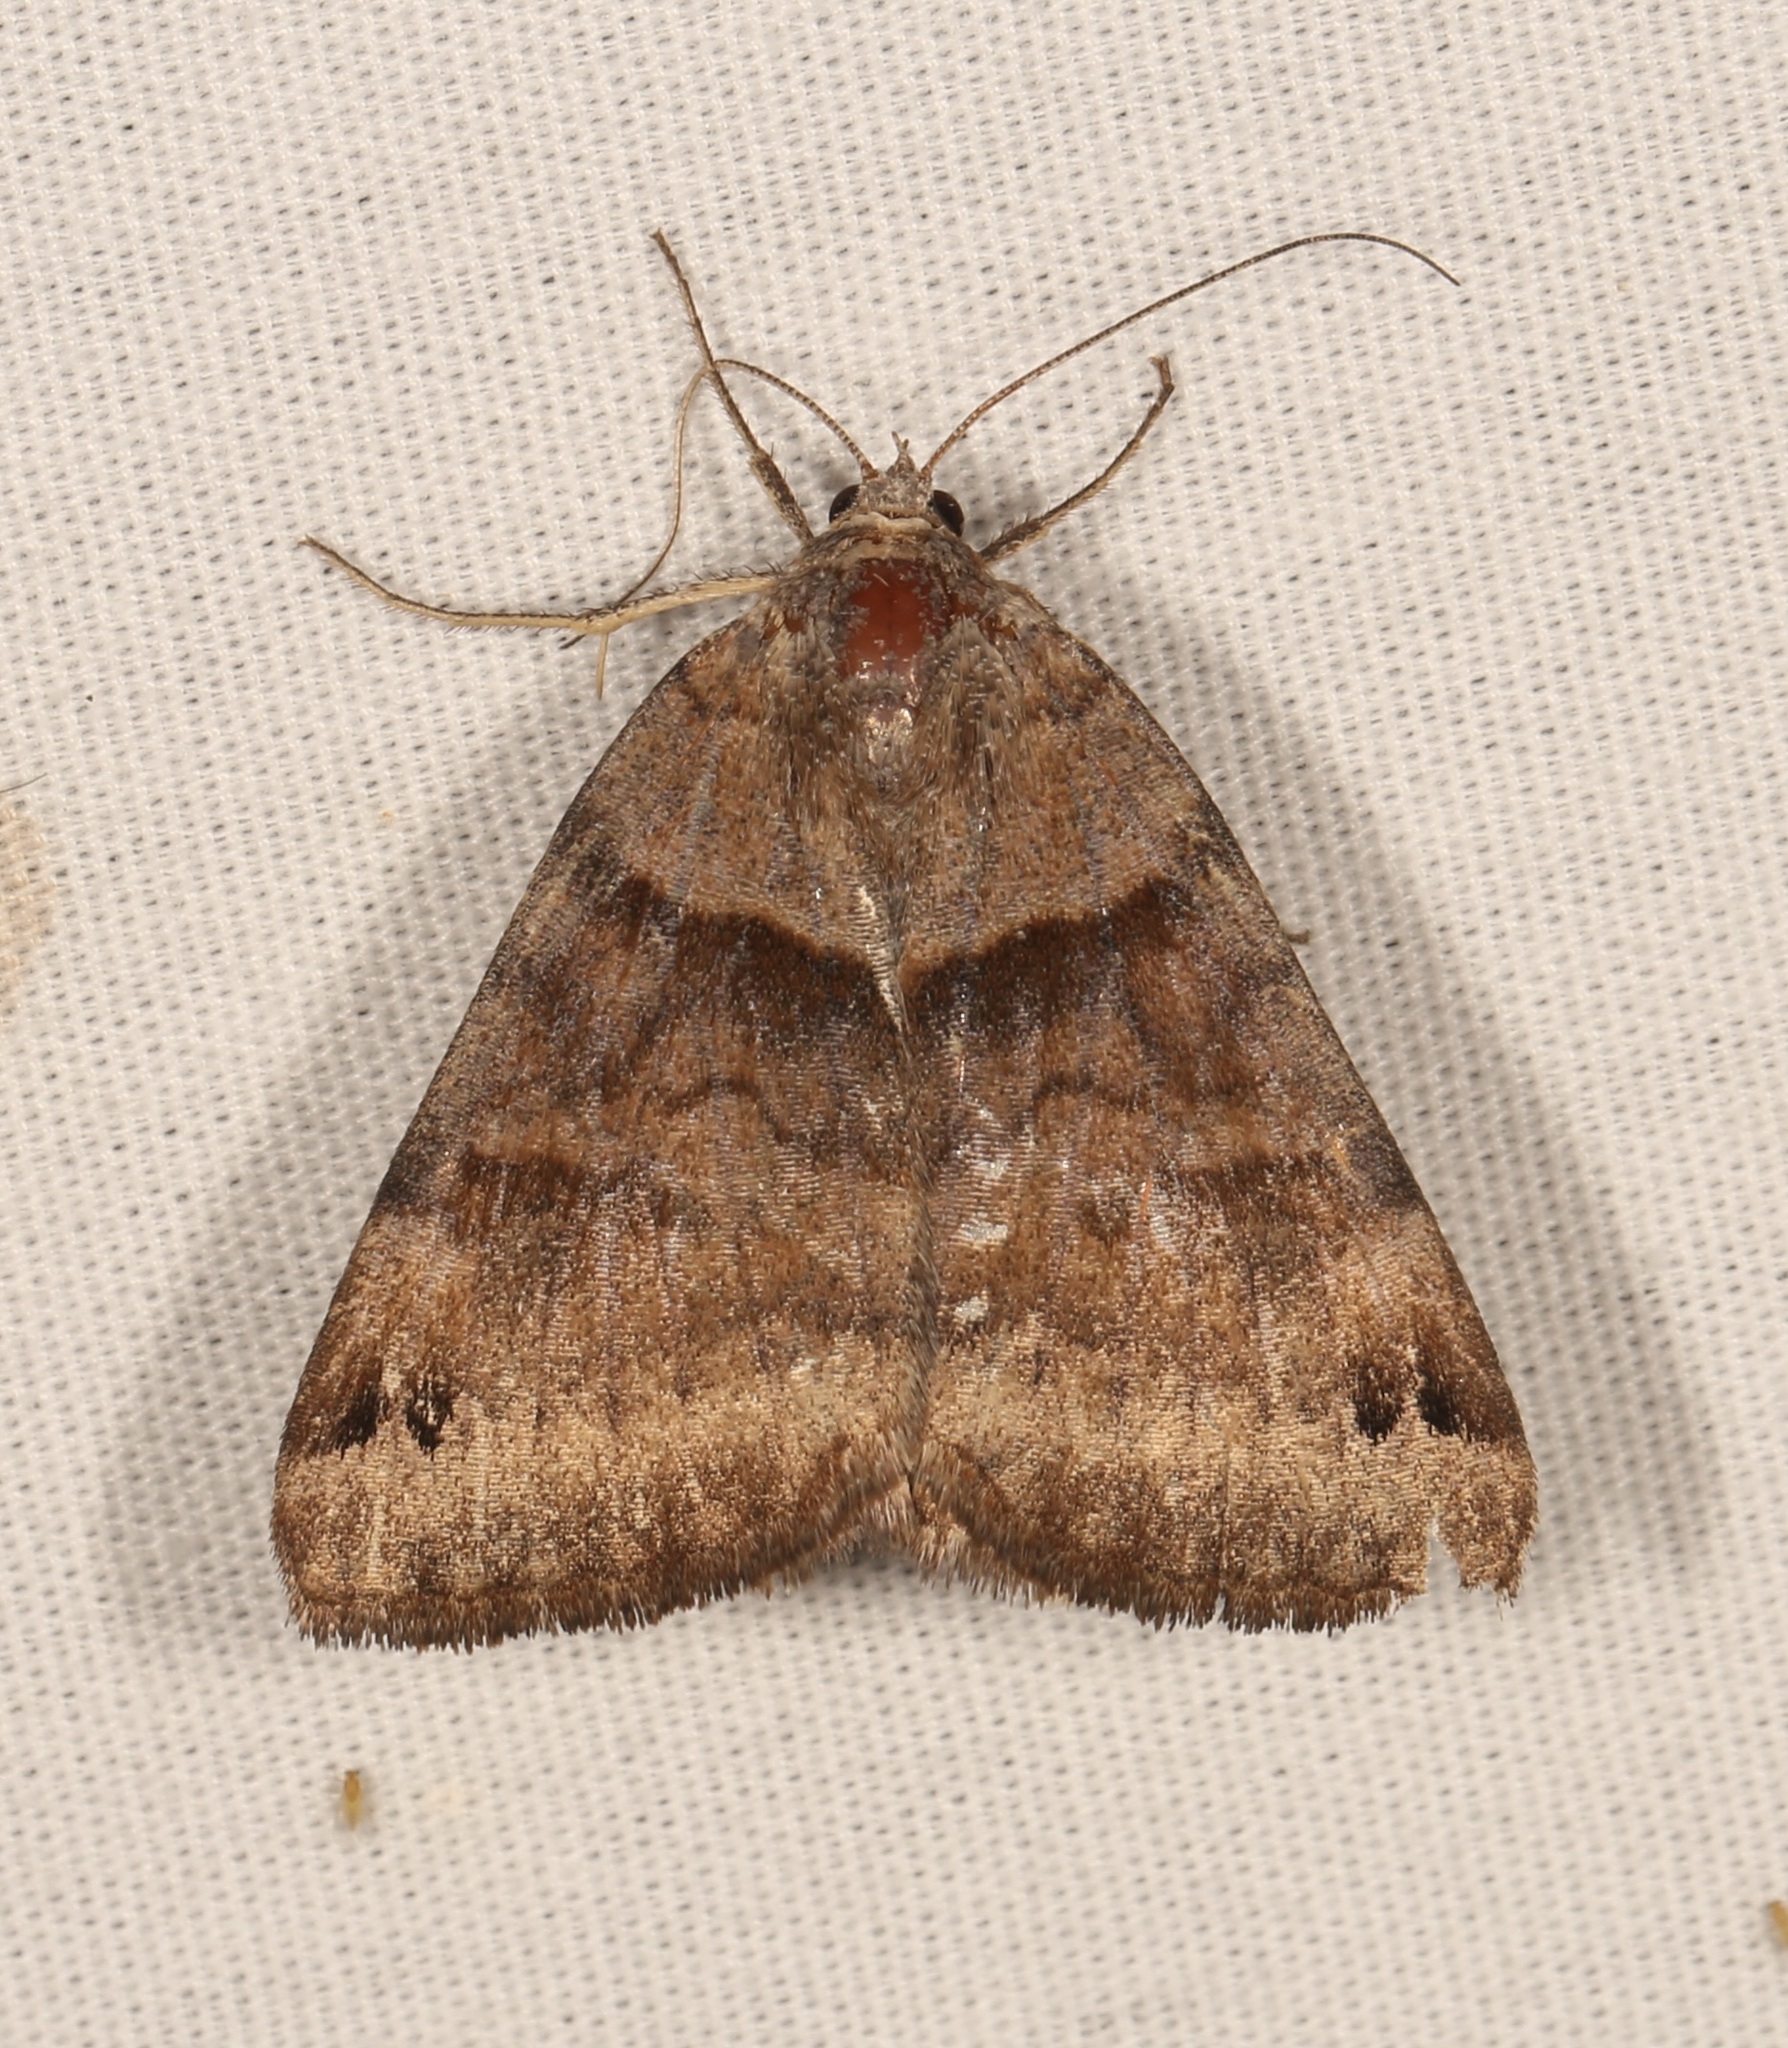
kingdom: Animalia
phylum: Arthropoda
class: Insecta
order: Lepidoptera
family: Erebidae
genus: Caenurgina
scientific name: Caenurgina crassiuscula
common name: Double-barred
